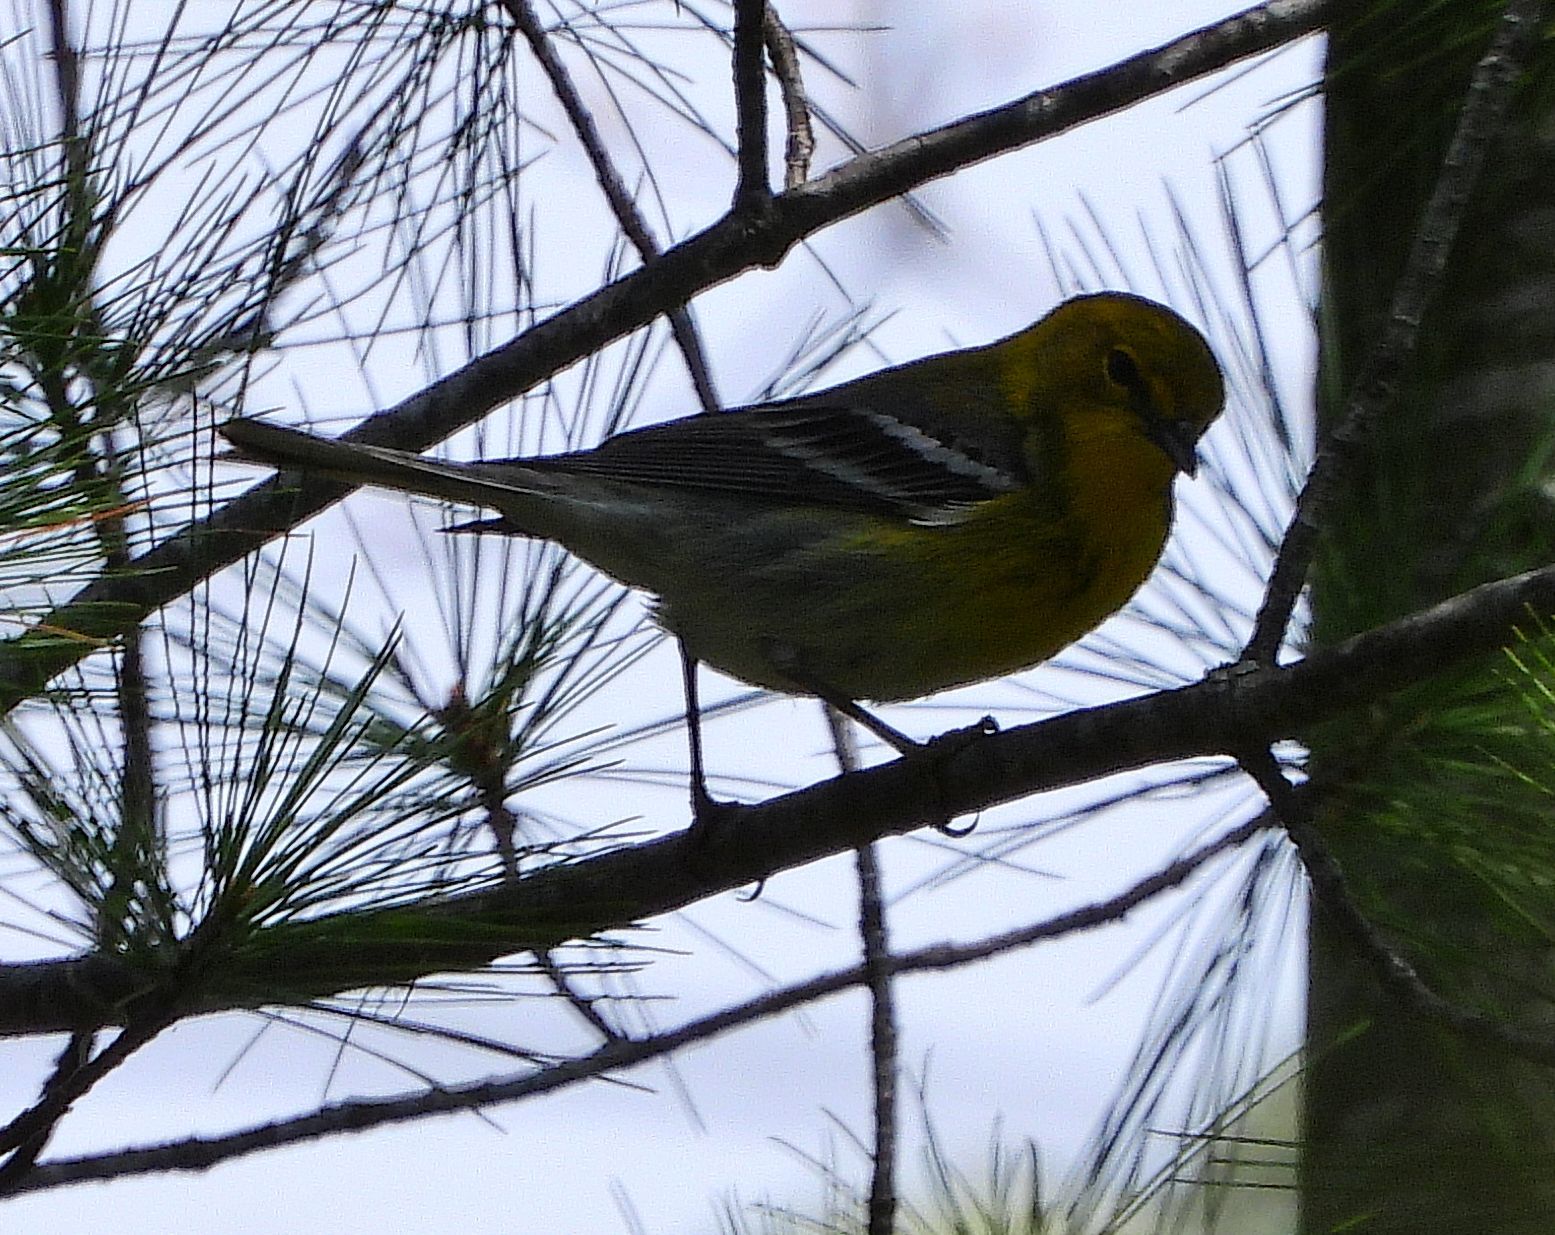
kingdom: Animalia
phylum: Chordata
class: Aves
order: Passeriformes
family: Parulidae
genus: Setophaga
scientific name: Setophaga pinus
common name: Pine warbler
